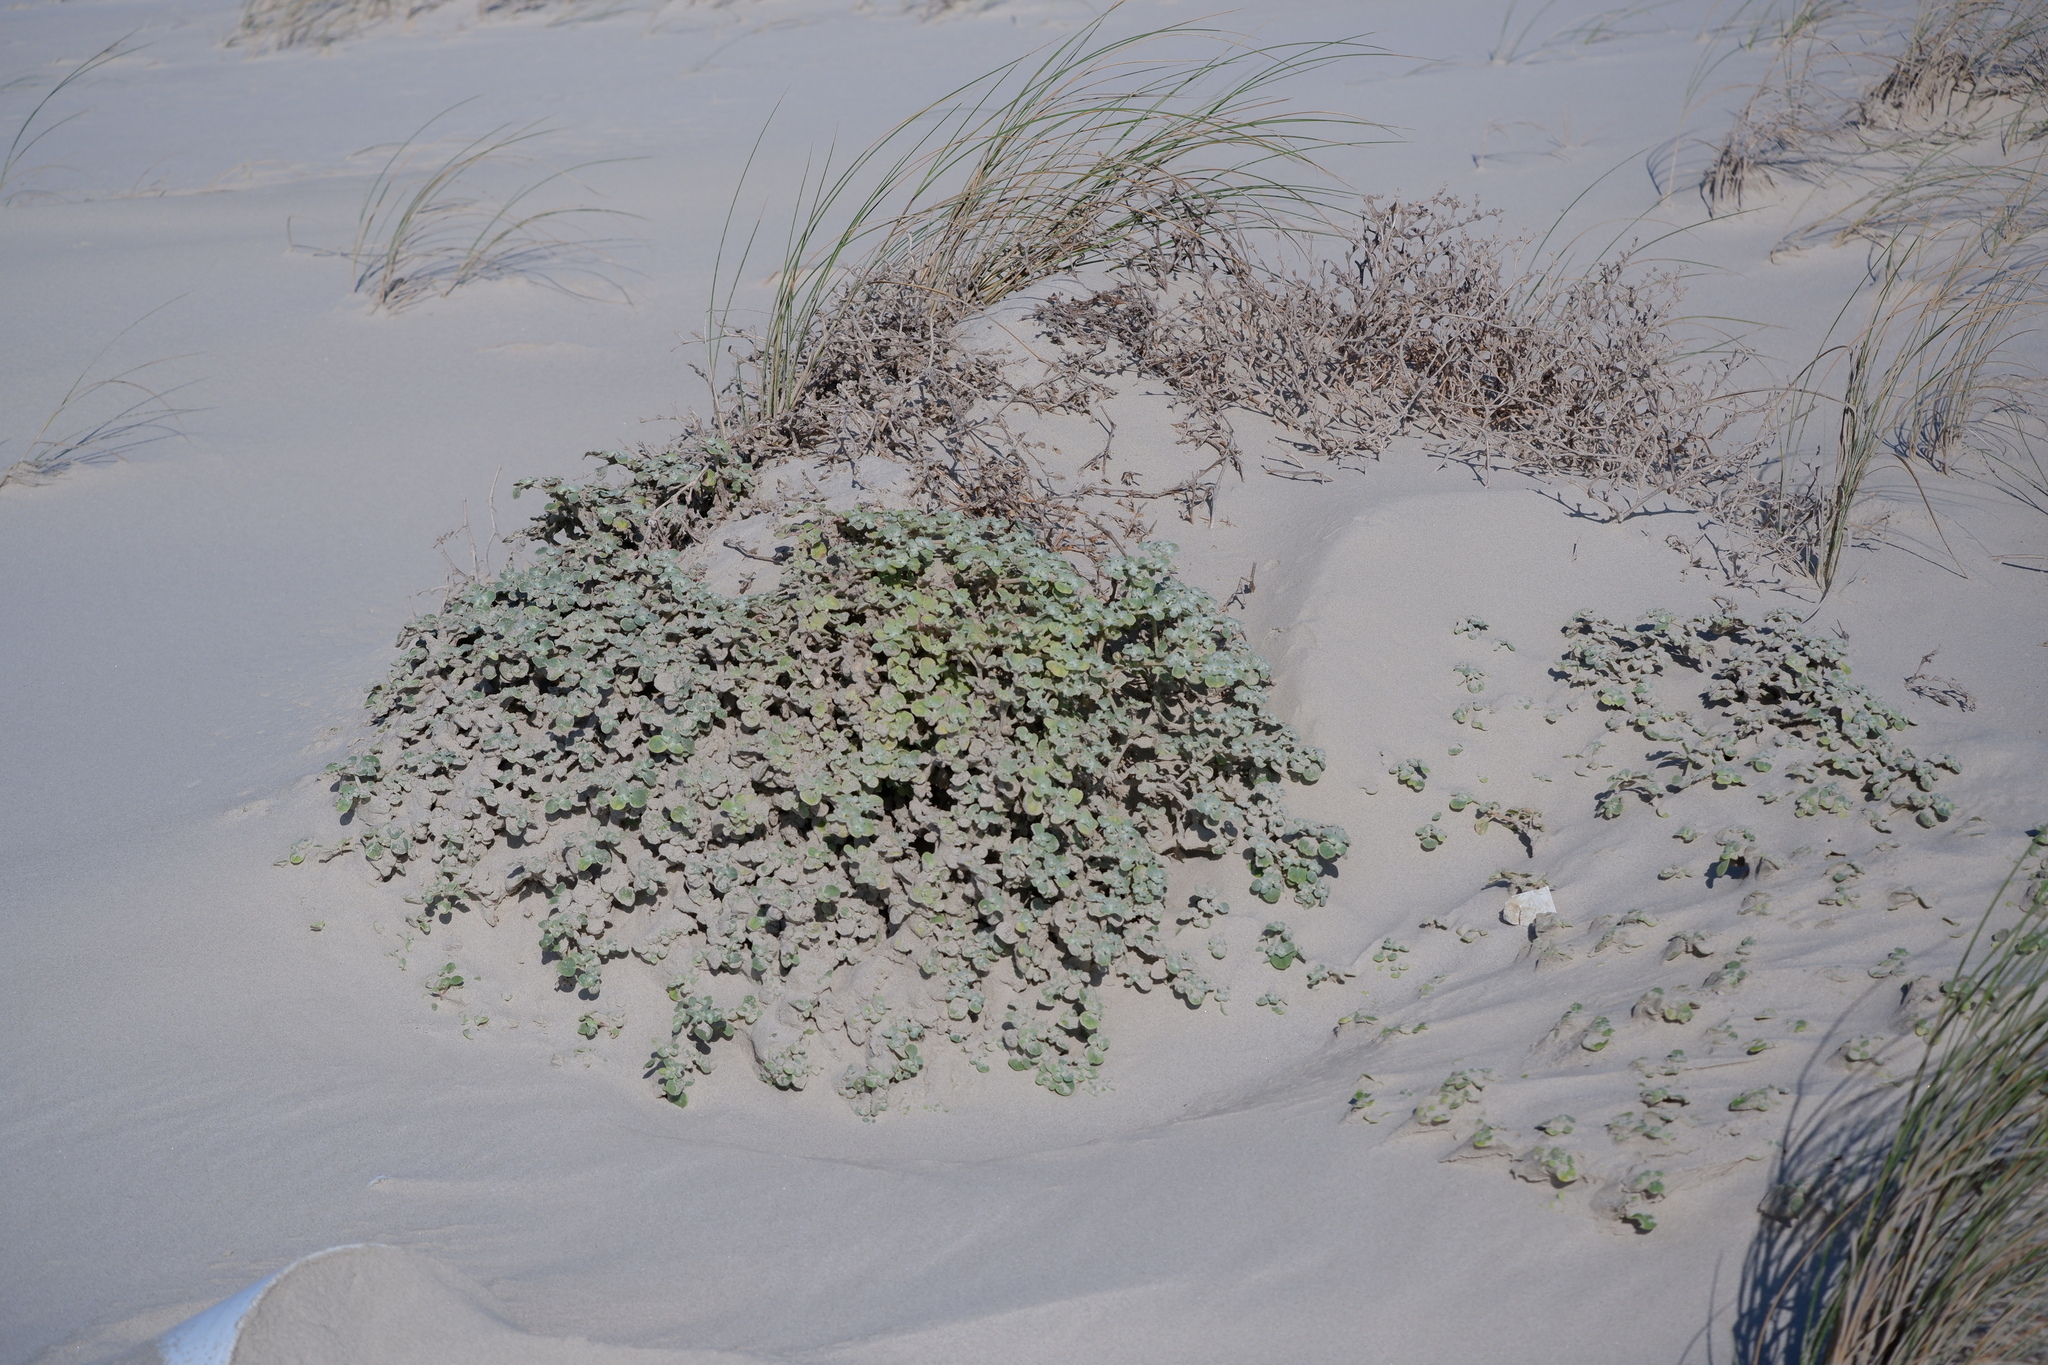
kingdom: Plantae
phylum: Tracheophyta
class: Magnoliopsida
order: Caryophyllales
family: Amaranthaceae
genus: Tidestromia
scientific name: Tidestromia lanuginosa
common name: Woolly tidestromia
